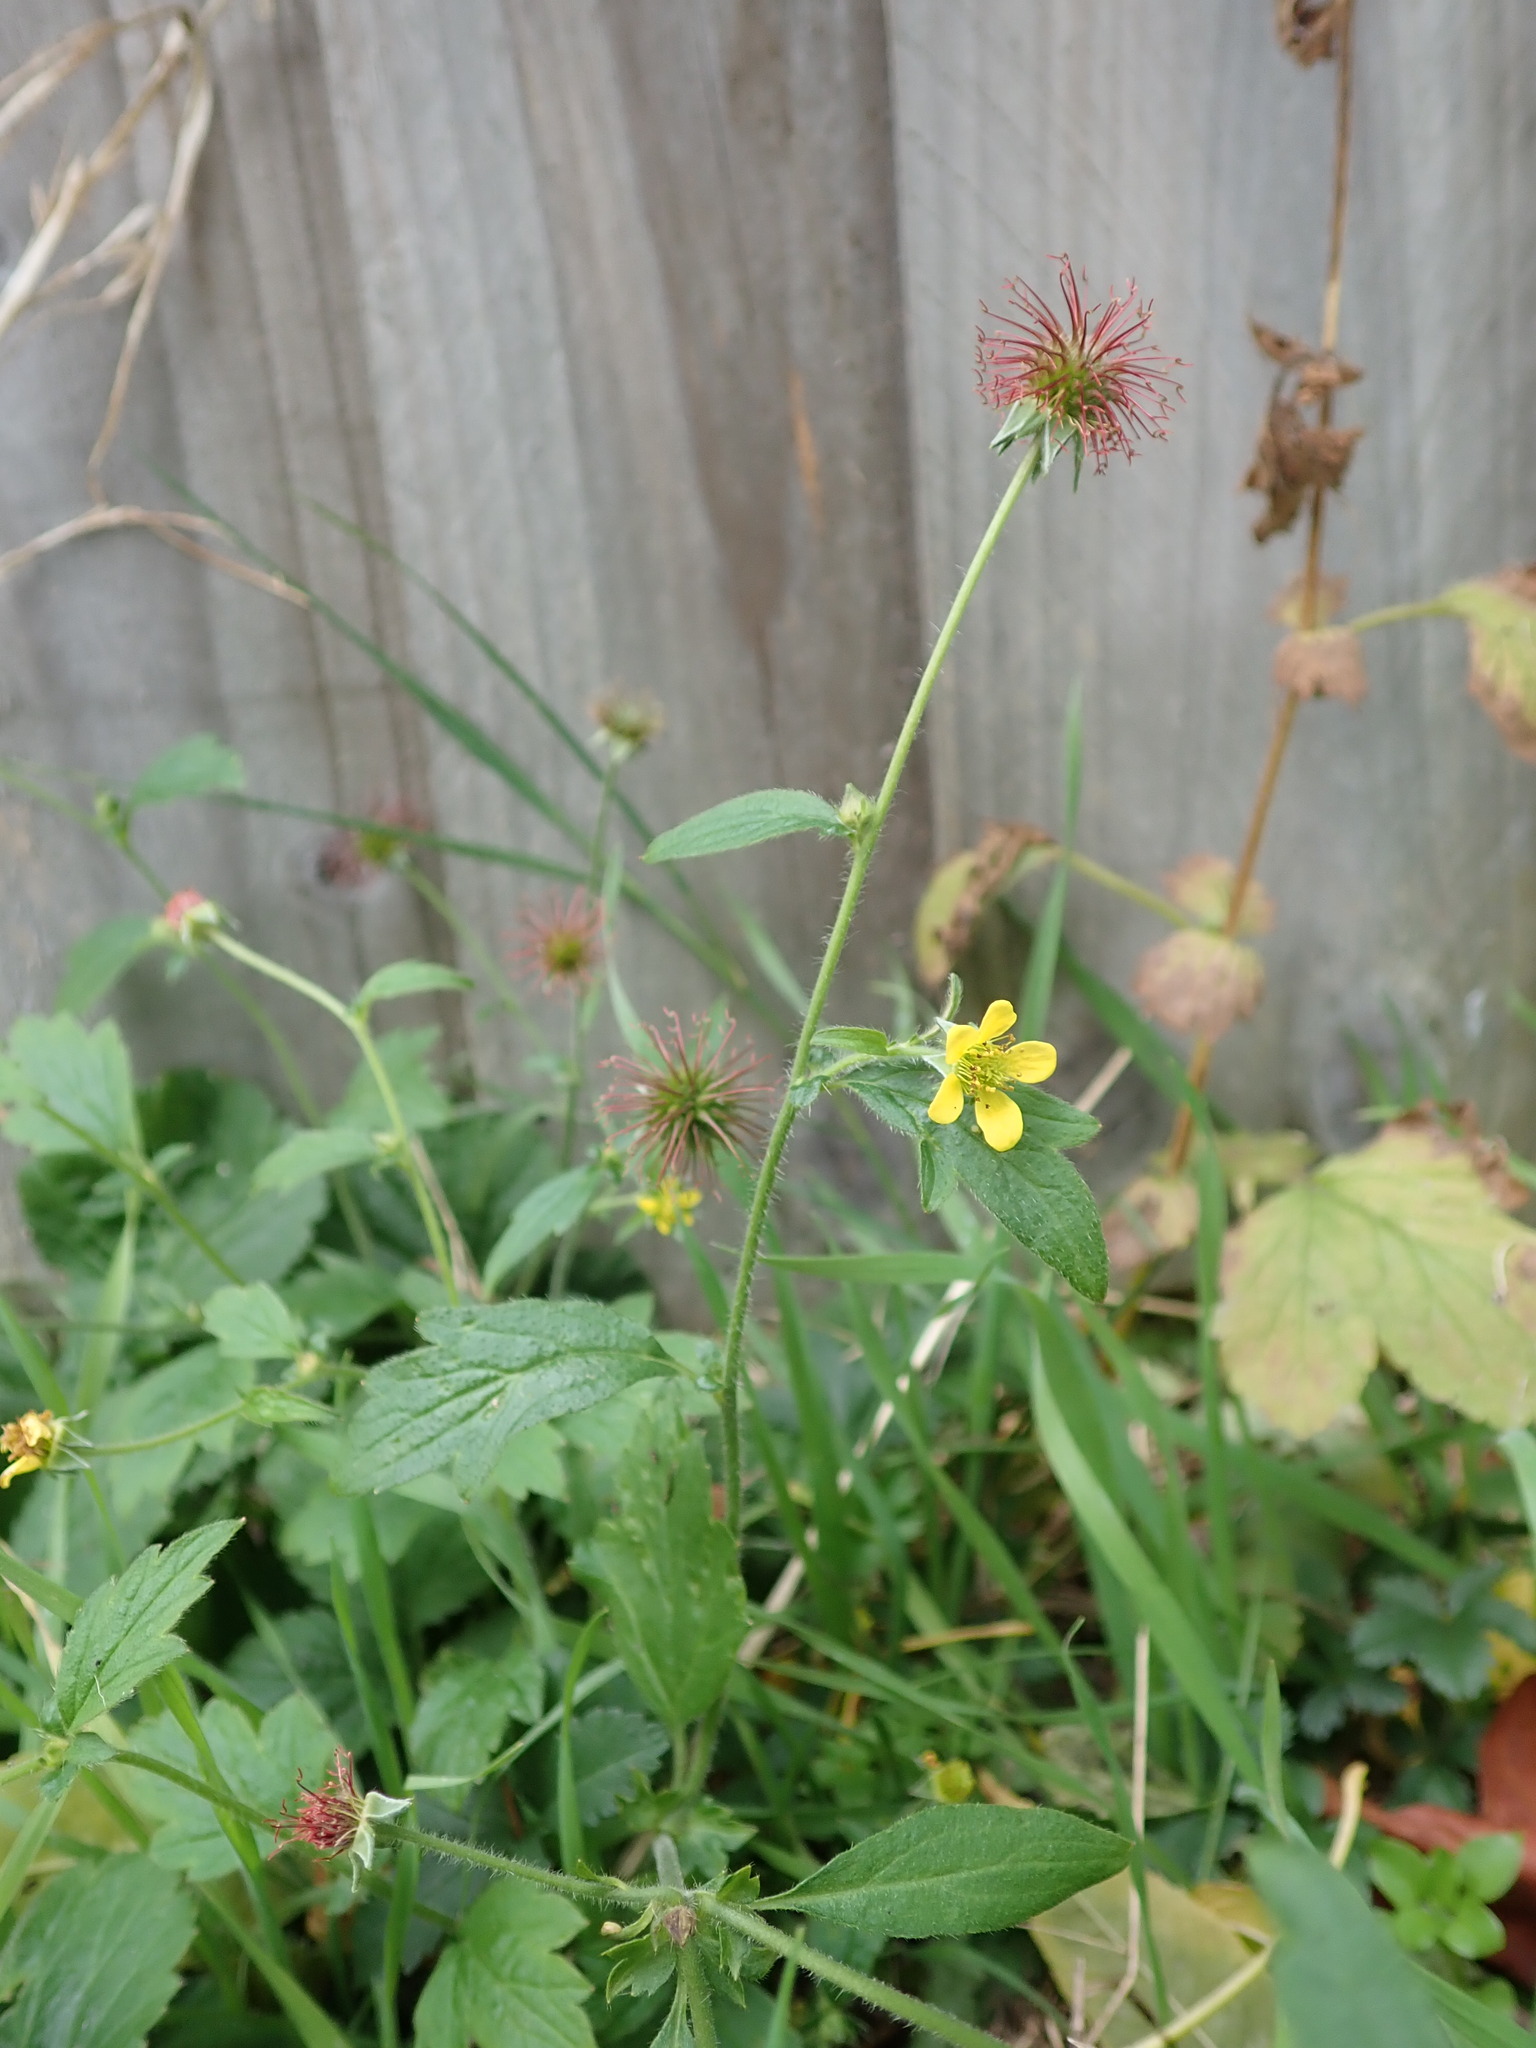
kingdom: Plantae
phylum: Tracheophyta
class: Magnoliopsida
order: Rosales
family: Rosaceae
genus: Geum
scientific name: Geum urbanum
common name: Wood avens
